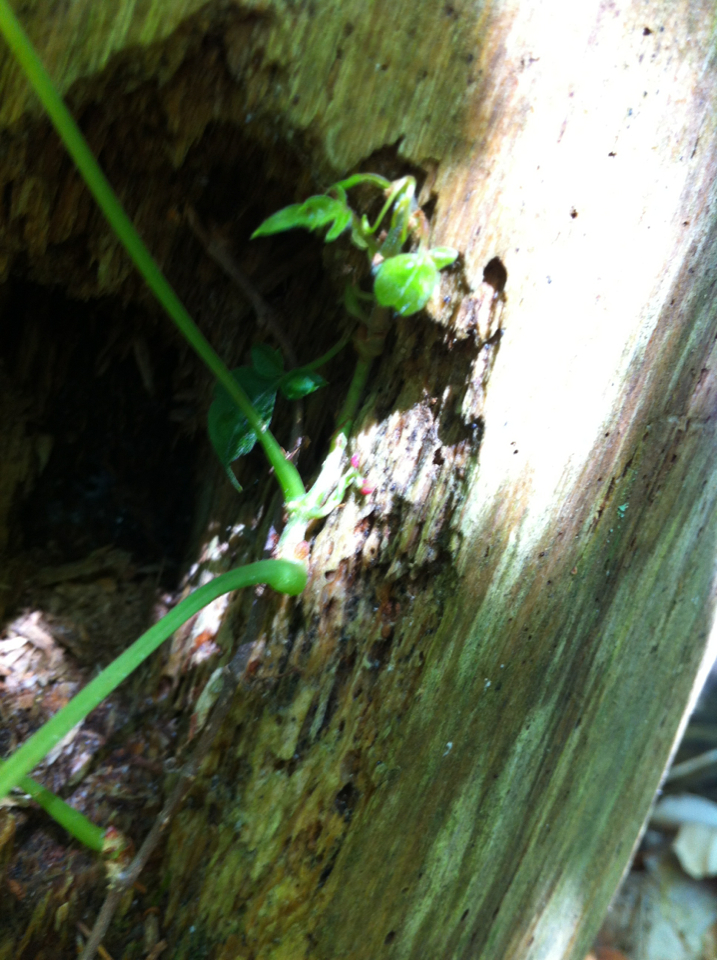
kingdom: Plantae
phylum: Tracheophyta
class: Magnoliopsida
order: Vitales
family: Vitaceae
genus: Parthenocissus
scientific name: Parthenocissus quinquefolia
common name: Virginia-creeper
